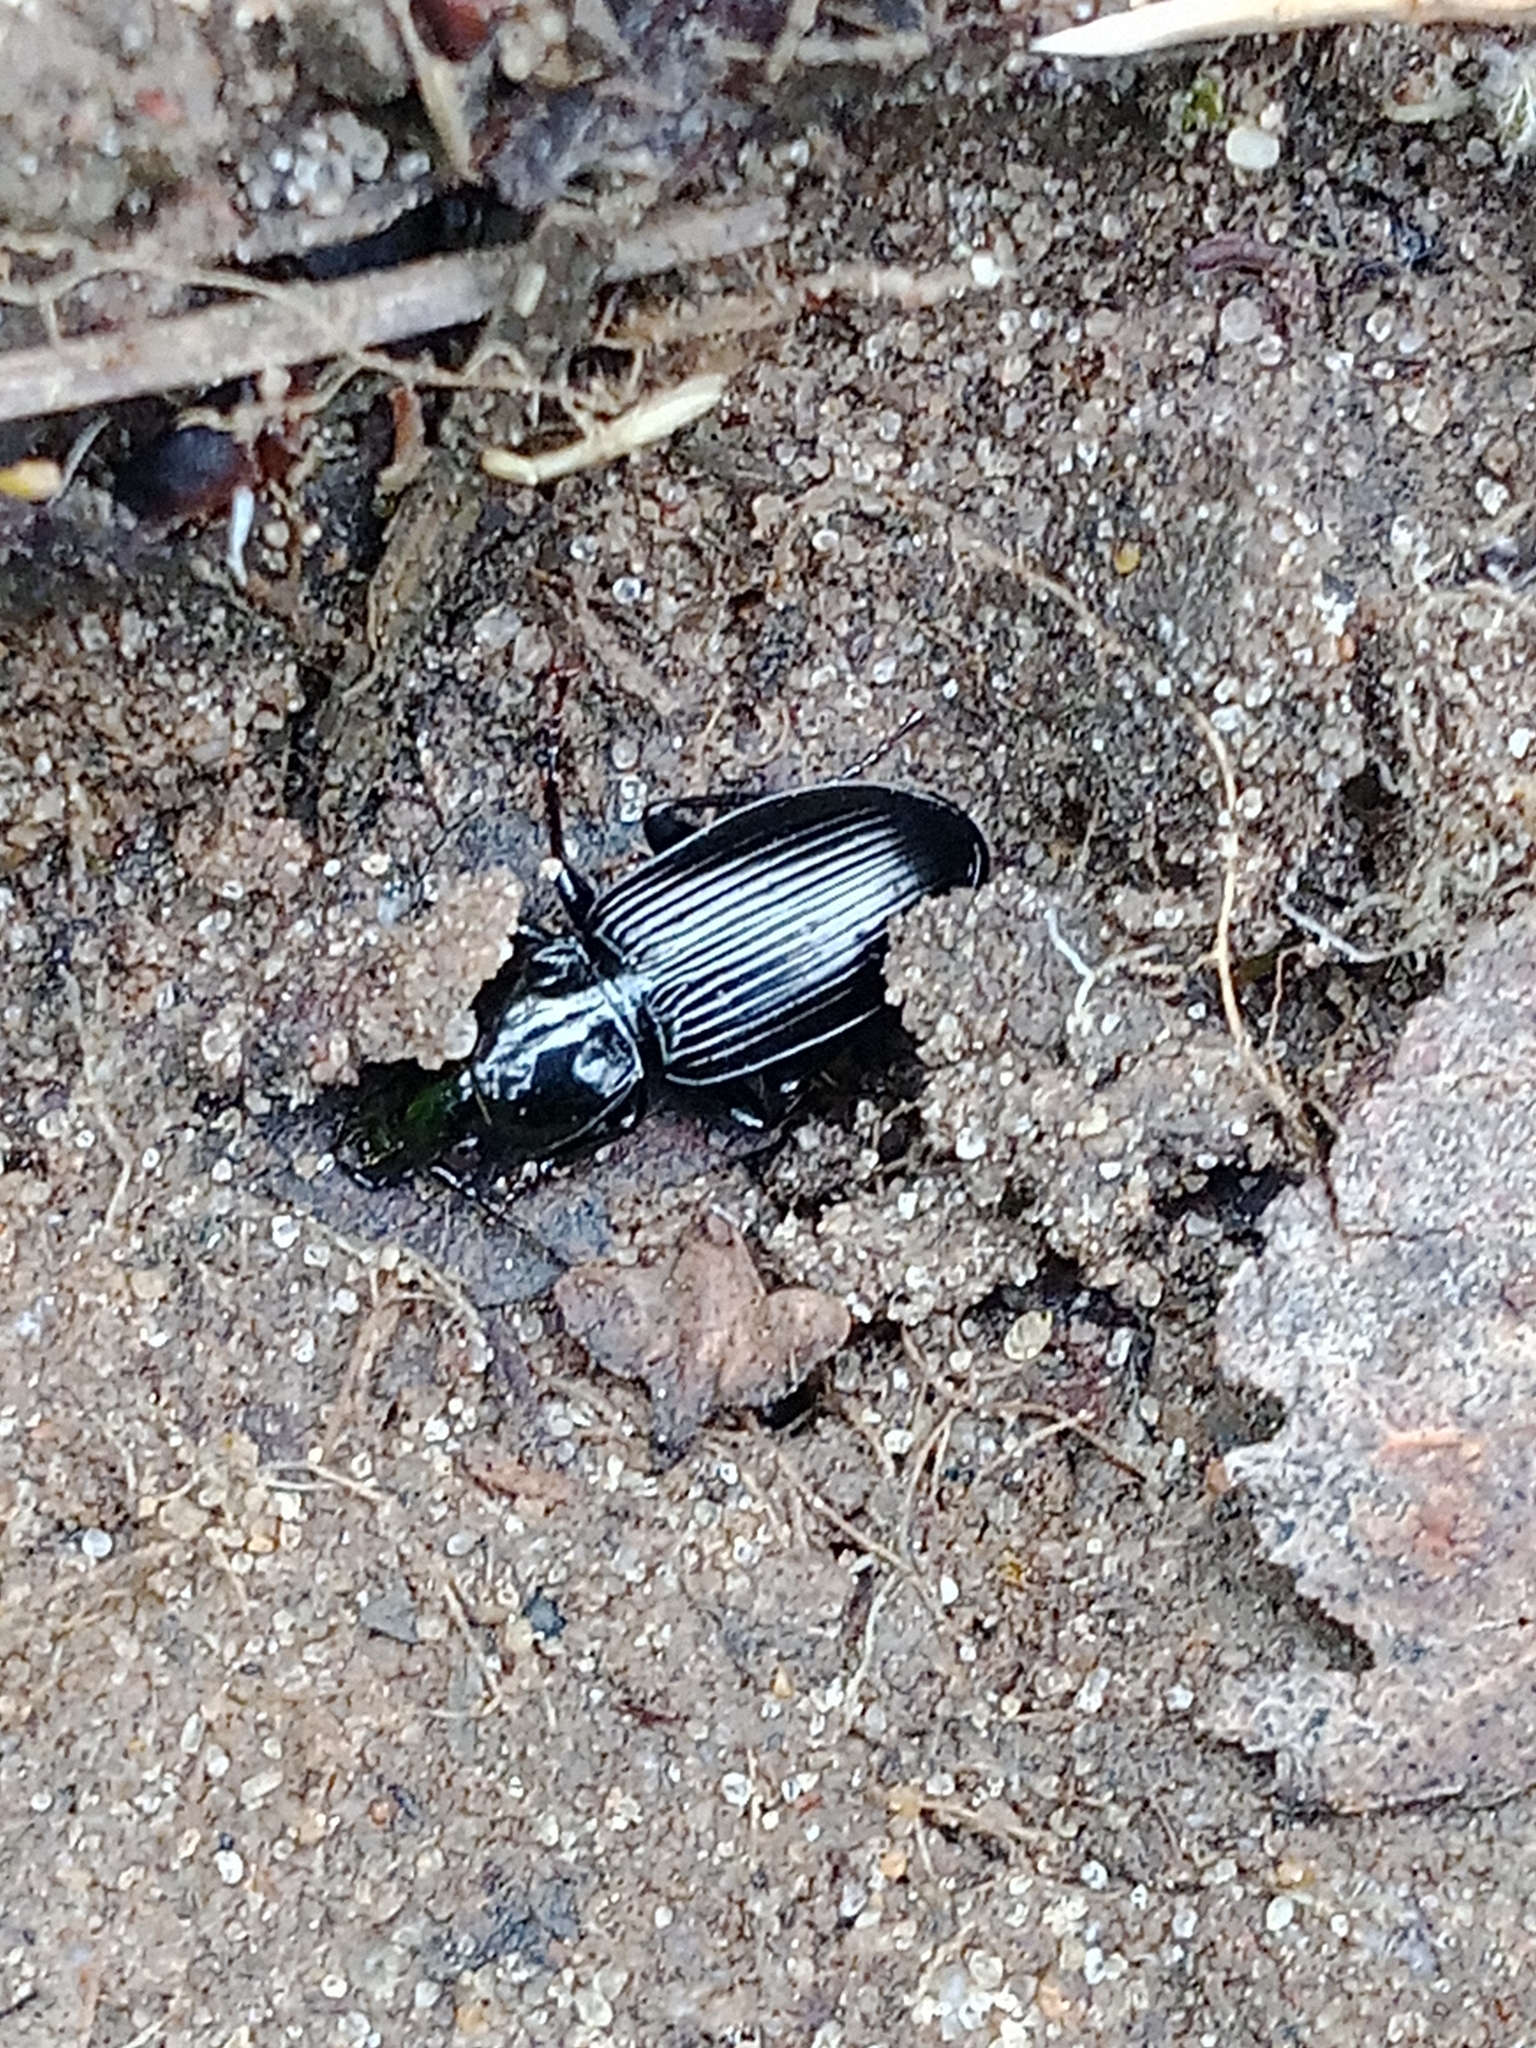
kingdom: Animalia
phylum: Arthropoda
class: Insecta
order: Coleoptera
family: Carabidae
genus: Pterostichus
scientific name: Pterostichus niger
